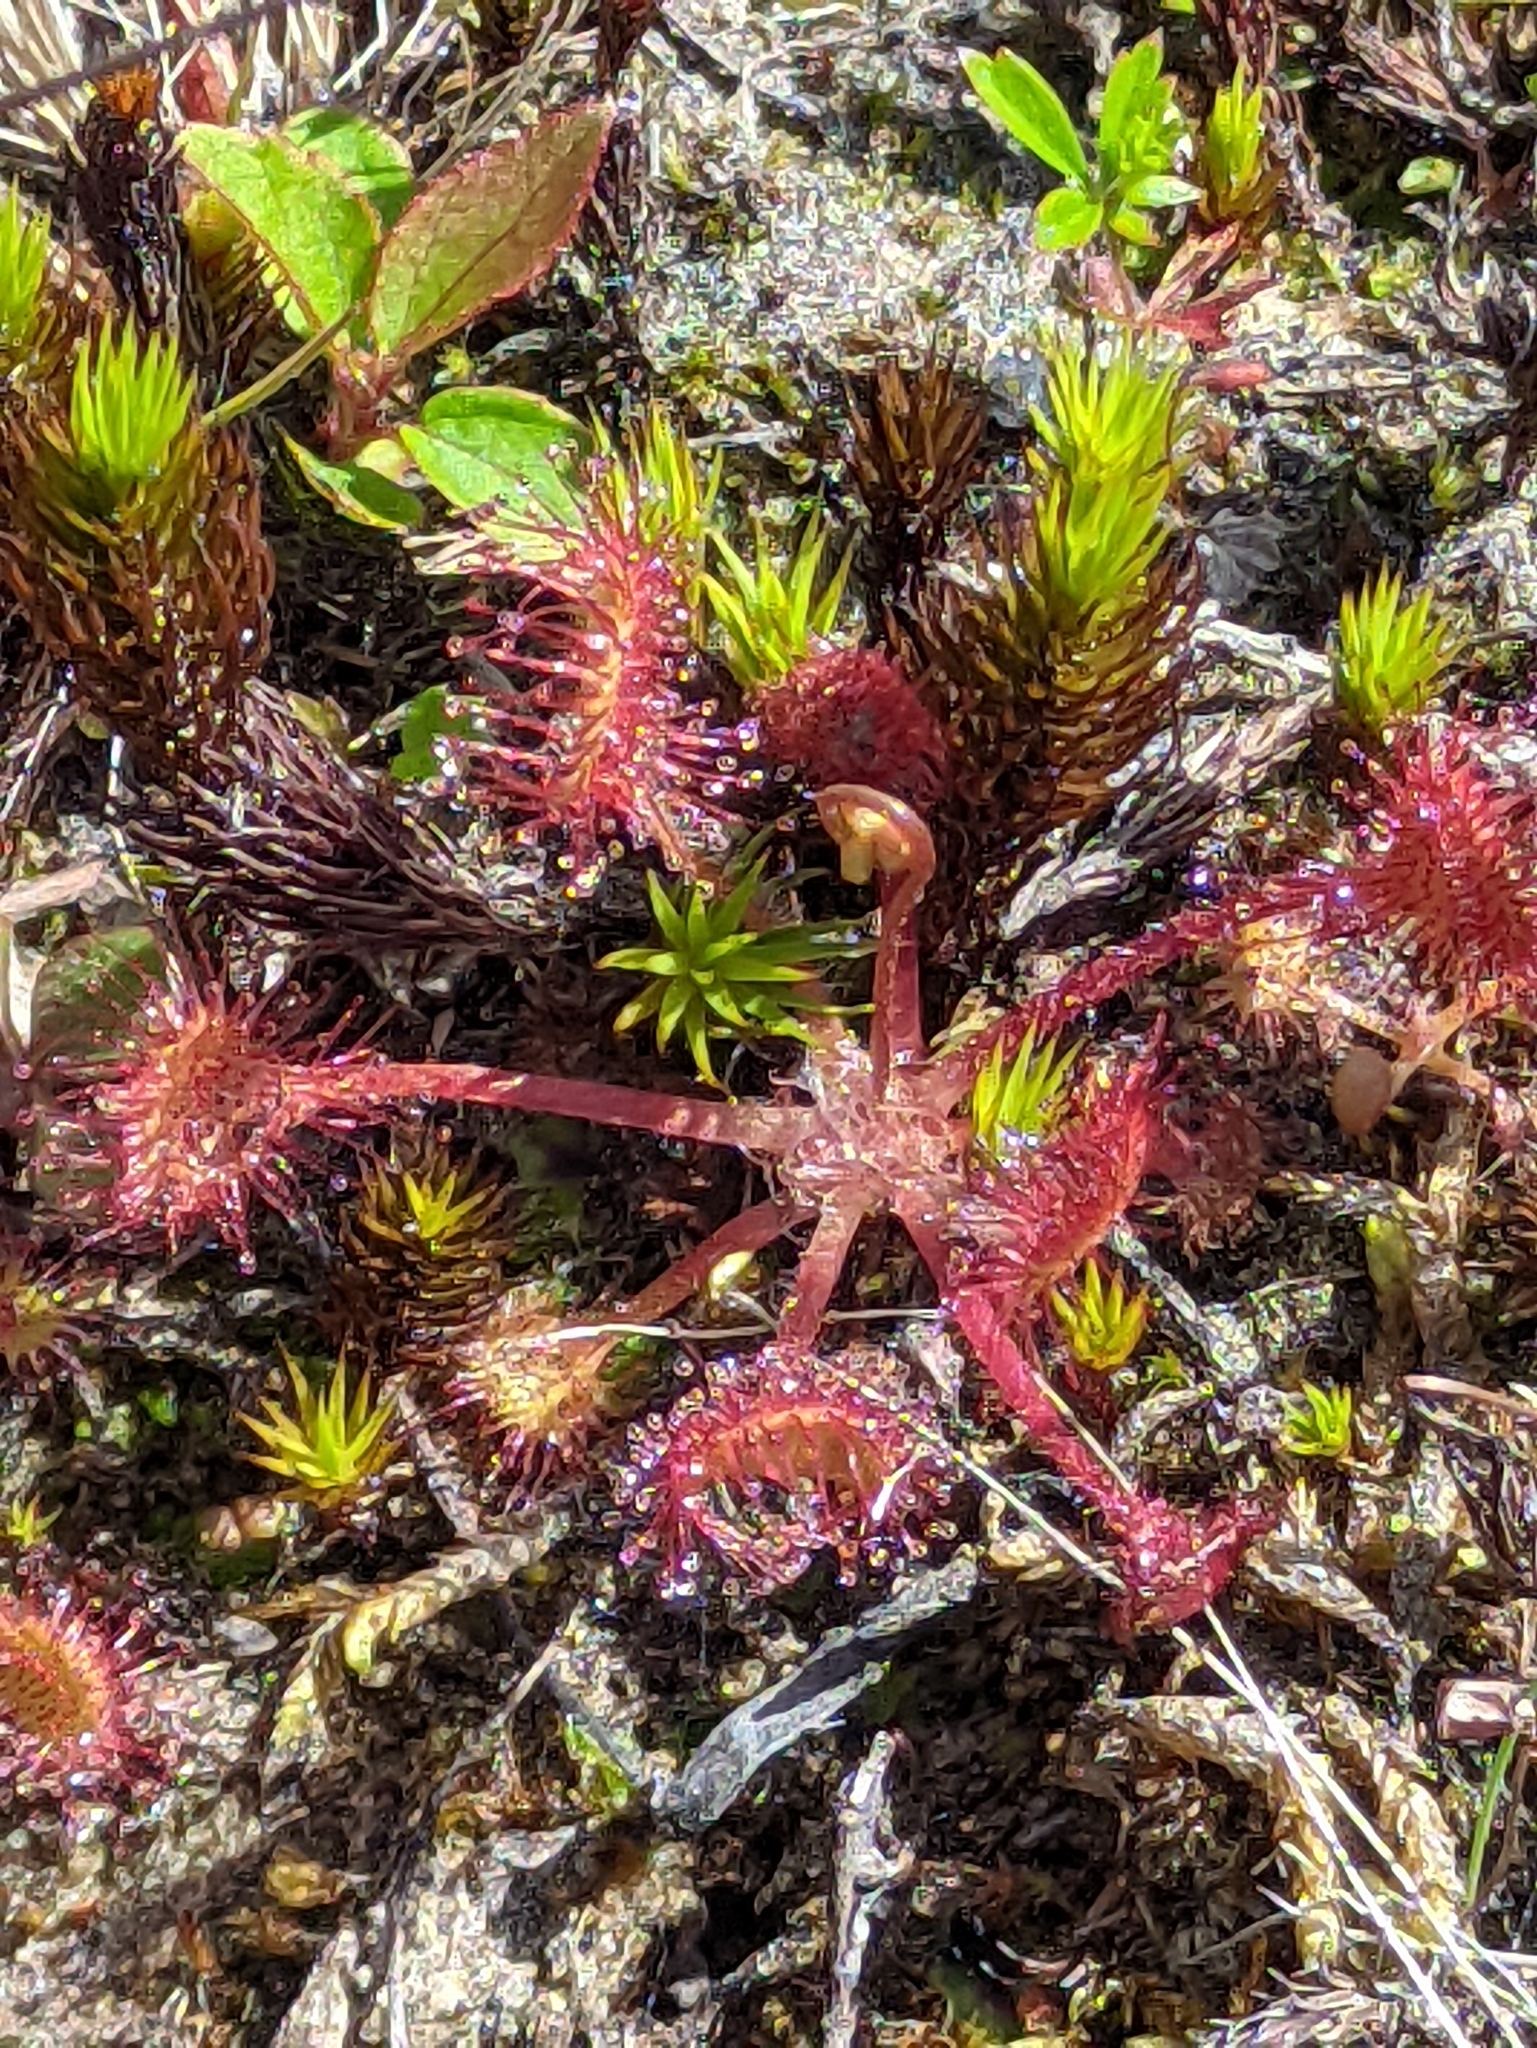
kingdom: Plantae
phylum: Tracheophyta
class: Magnoliopsida
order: Caryophyllales
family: Droseraceae
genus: Drosera
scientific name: Drosera rotundifolia
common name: Round-leaved sundew
